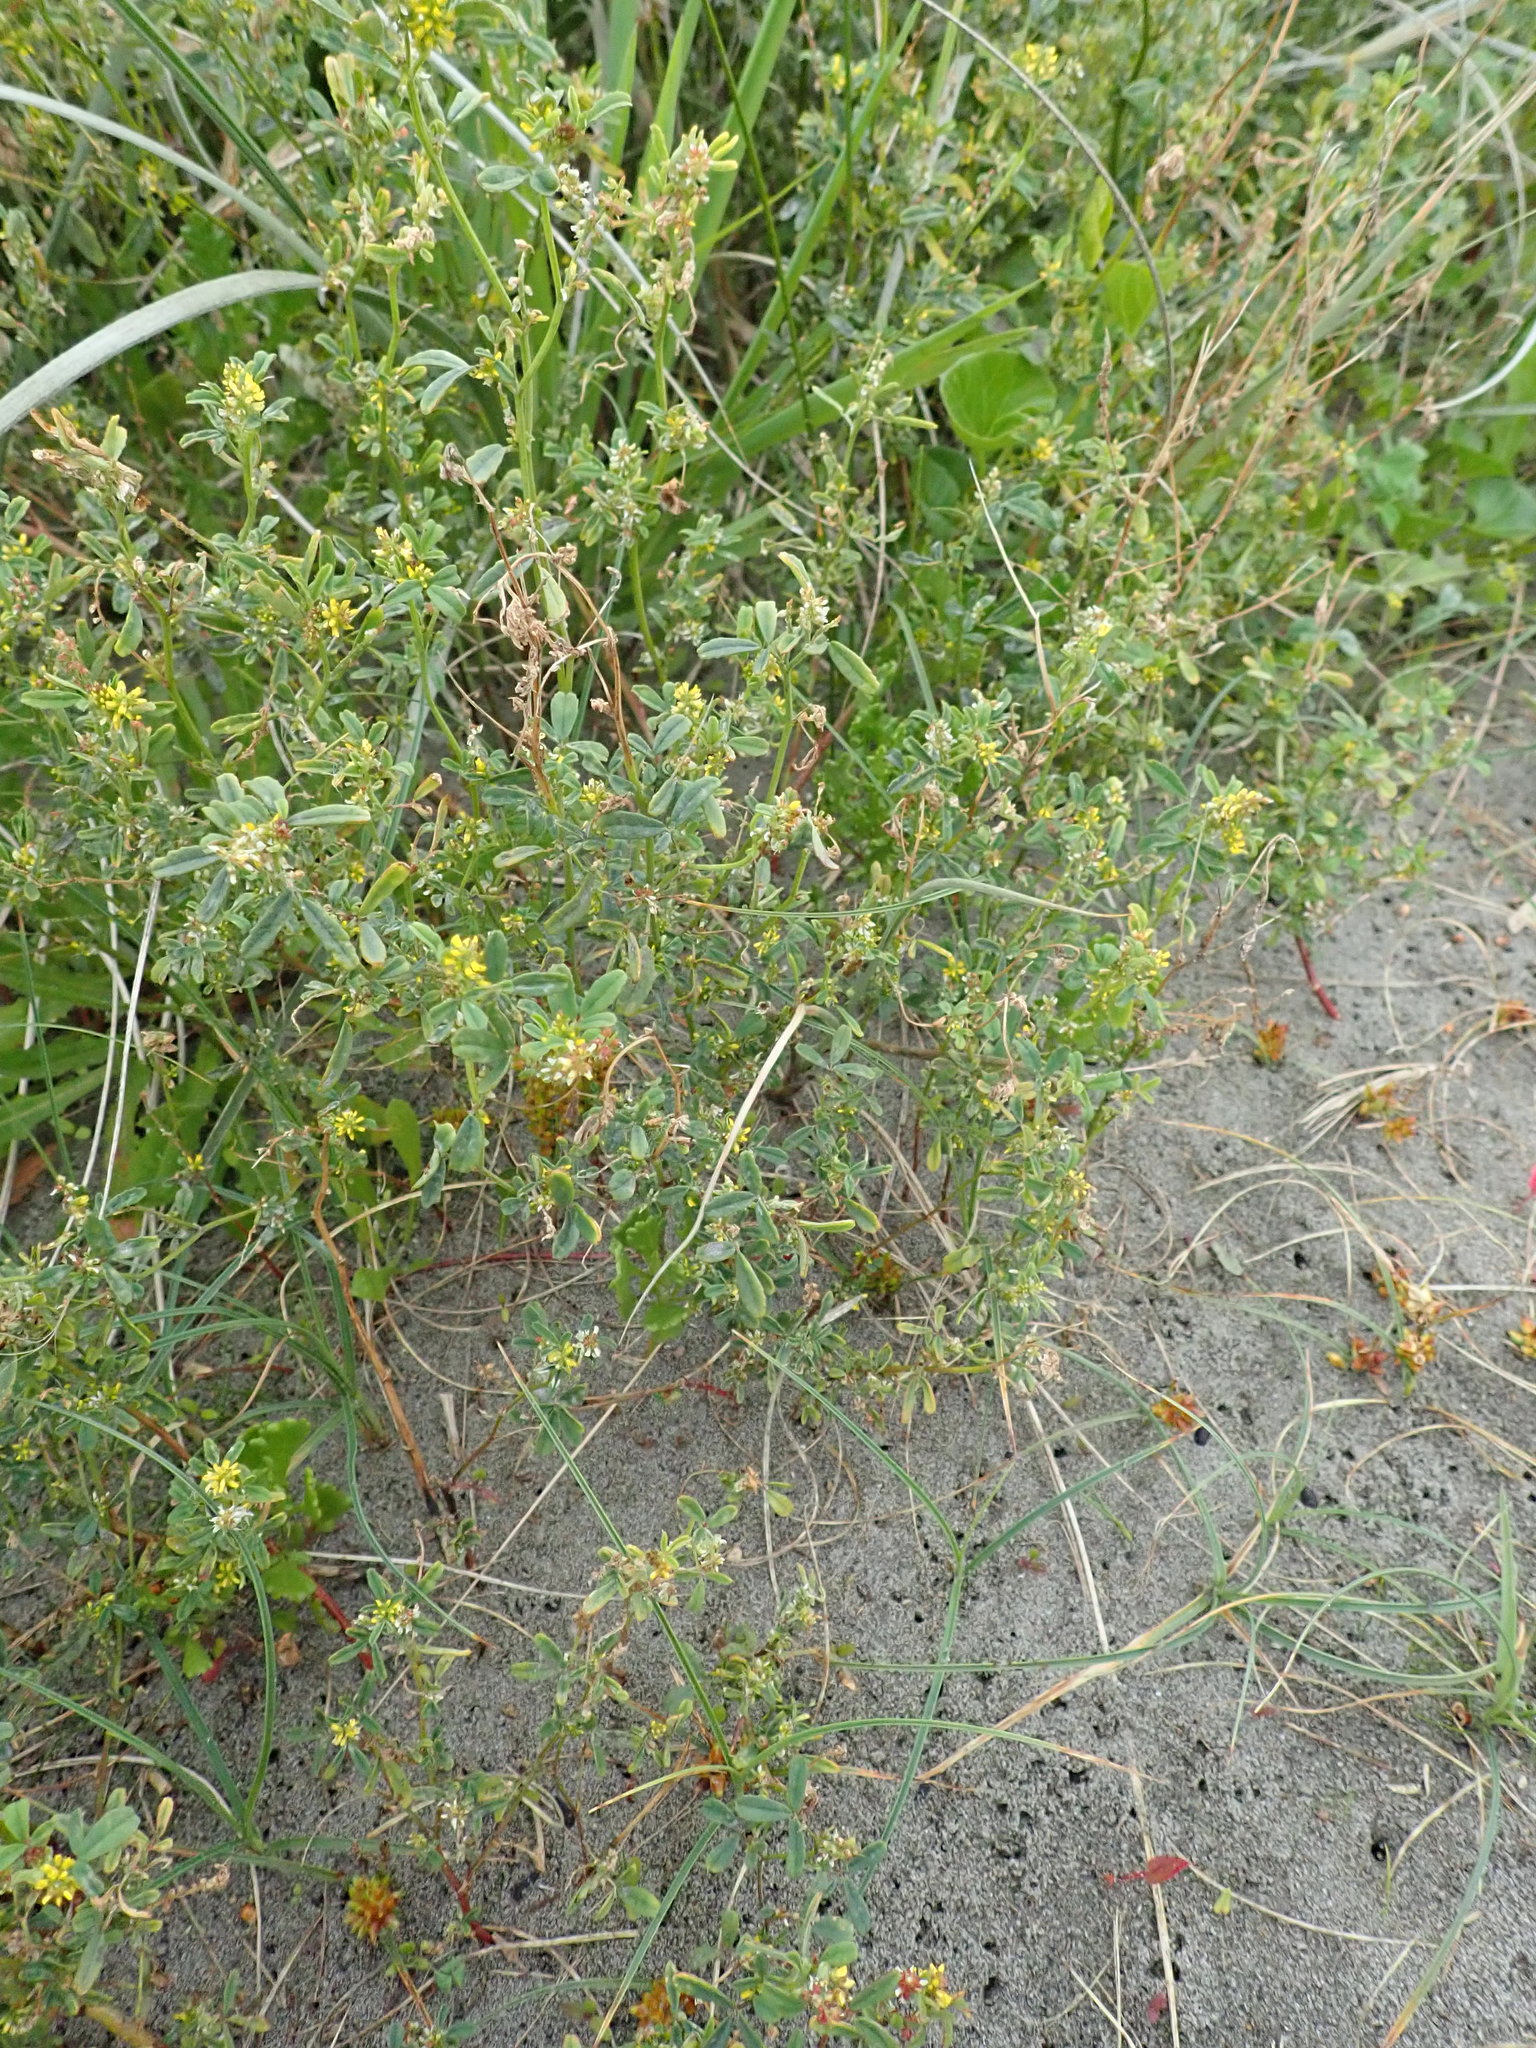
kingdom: Plantae
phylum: Tracheophyta
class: Magnoliopsida
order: Fabales
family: Fabaceae
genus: Melilotus
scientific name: Melilotus indicus
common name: Small melilot
